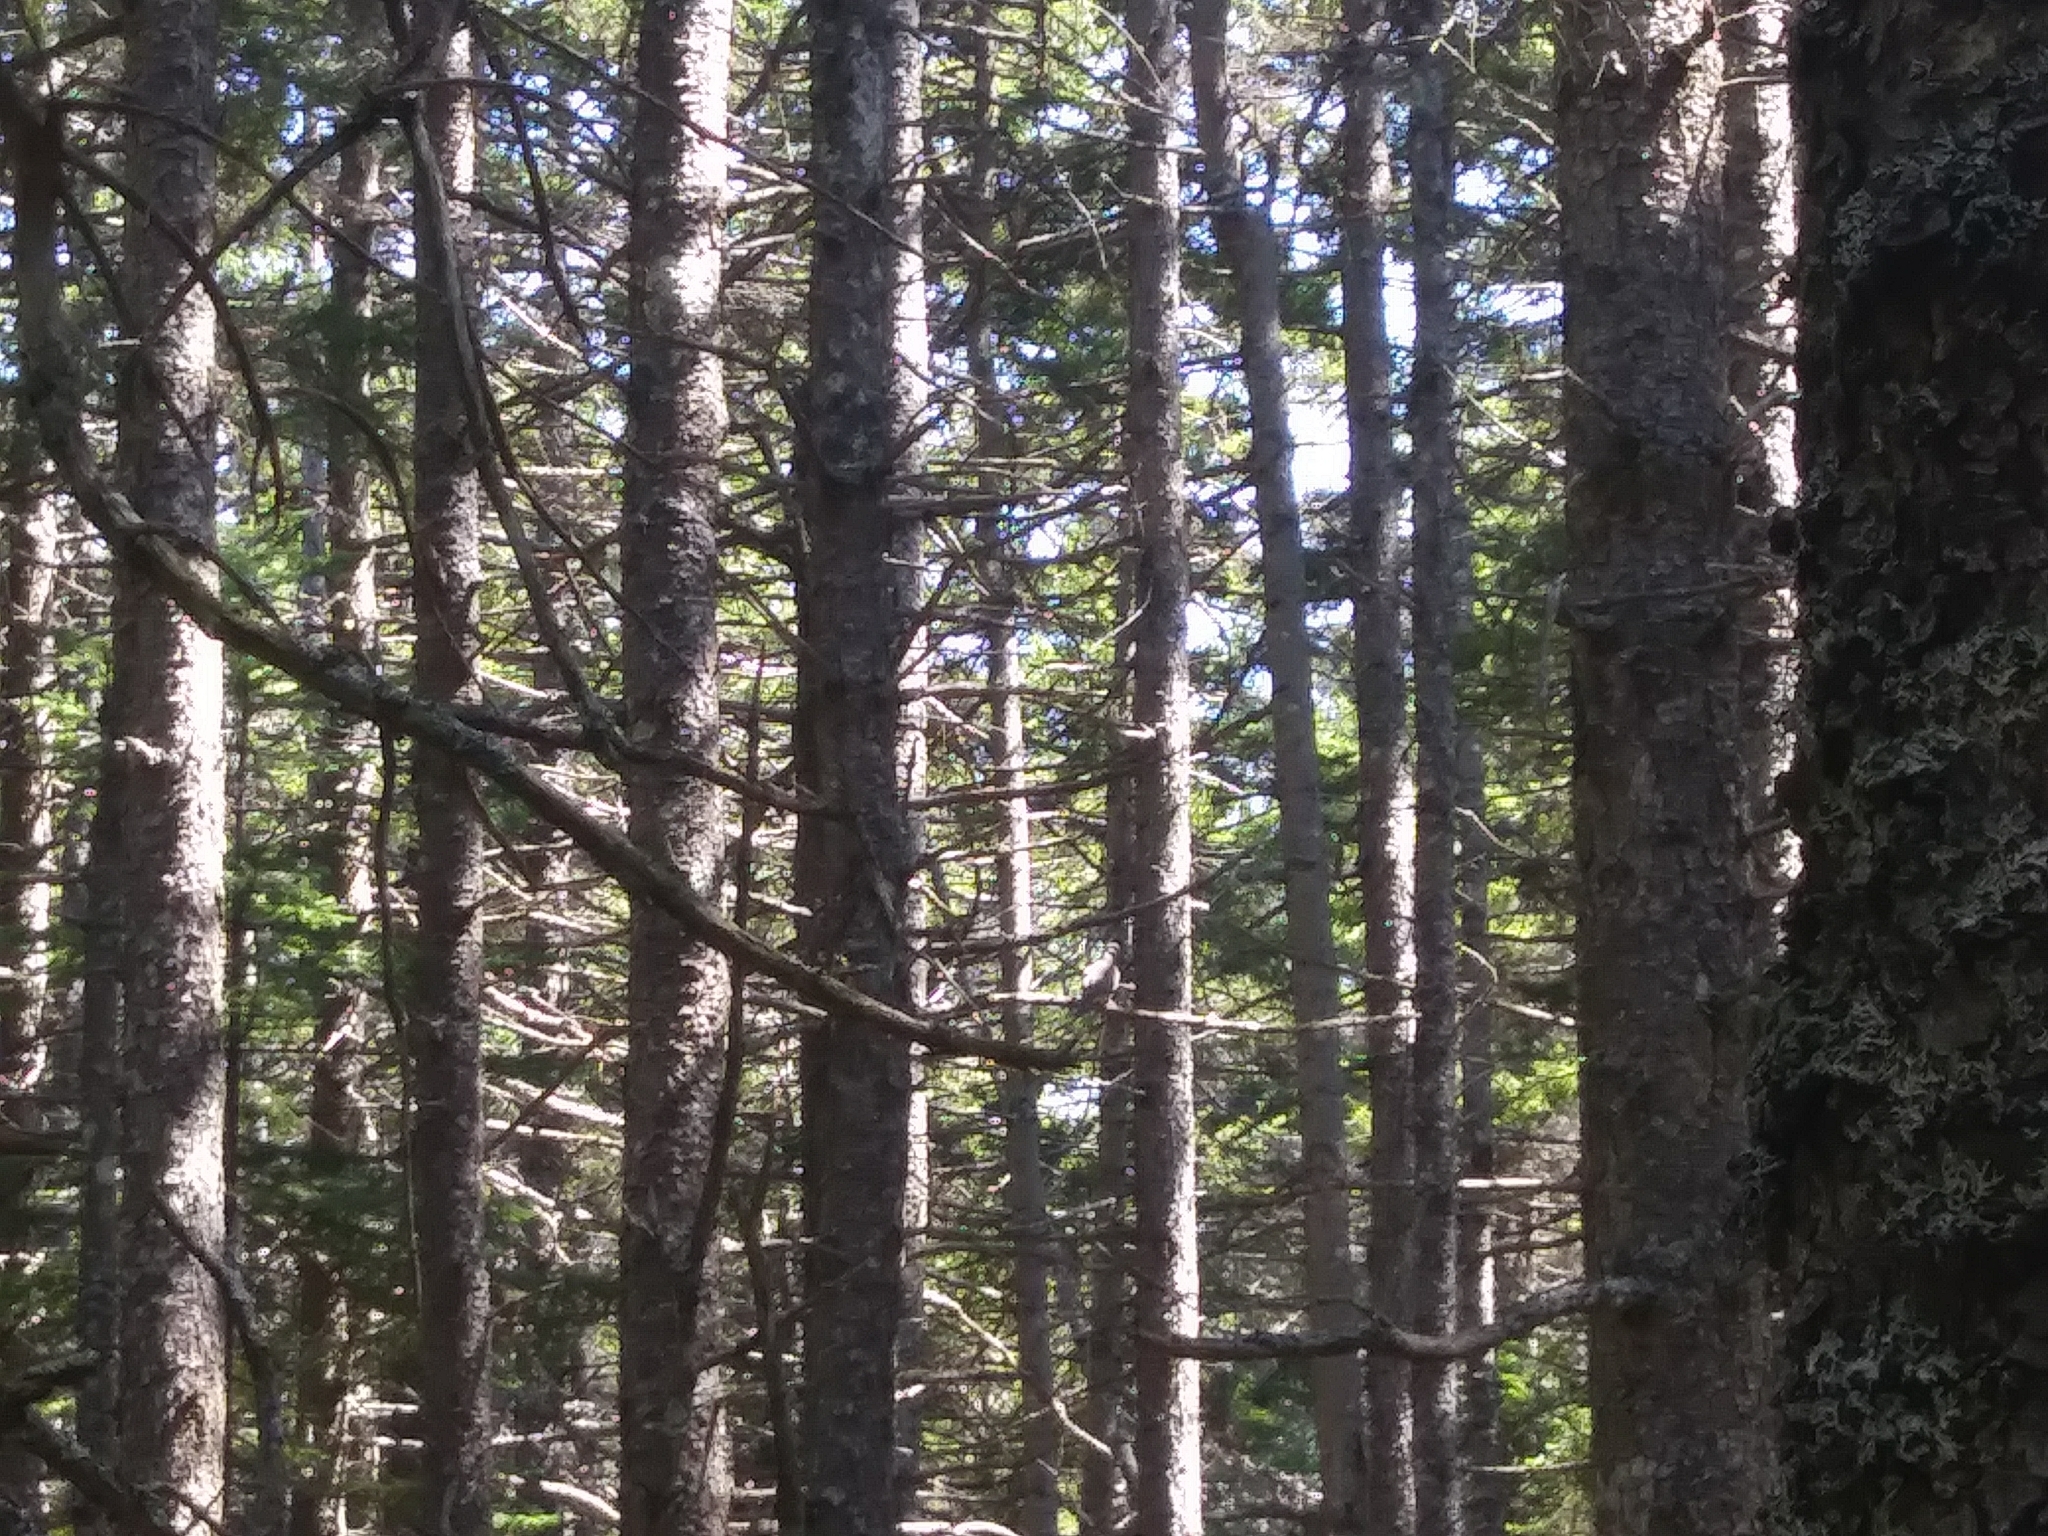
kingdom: Animalia
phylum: Chordata
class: Aves
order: Columbiformes
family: Columbidae
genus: Zenaida
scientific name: Zenaida macroura
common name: Mourning dove
